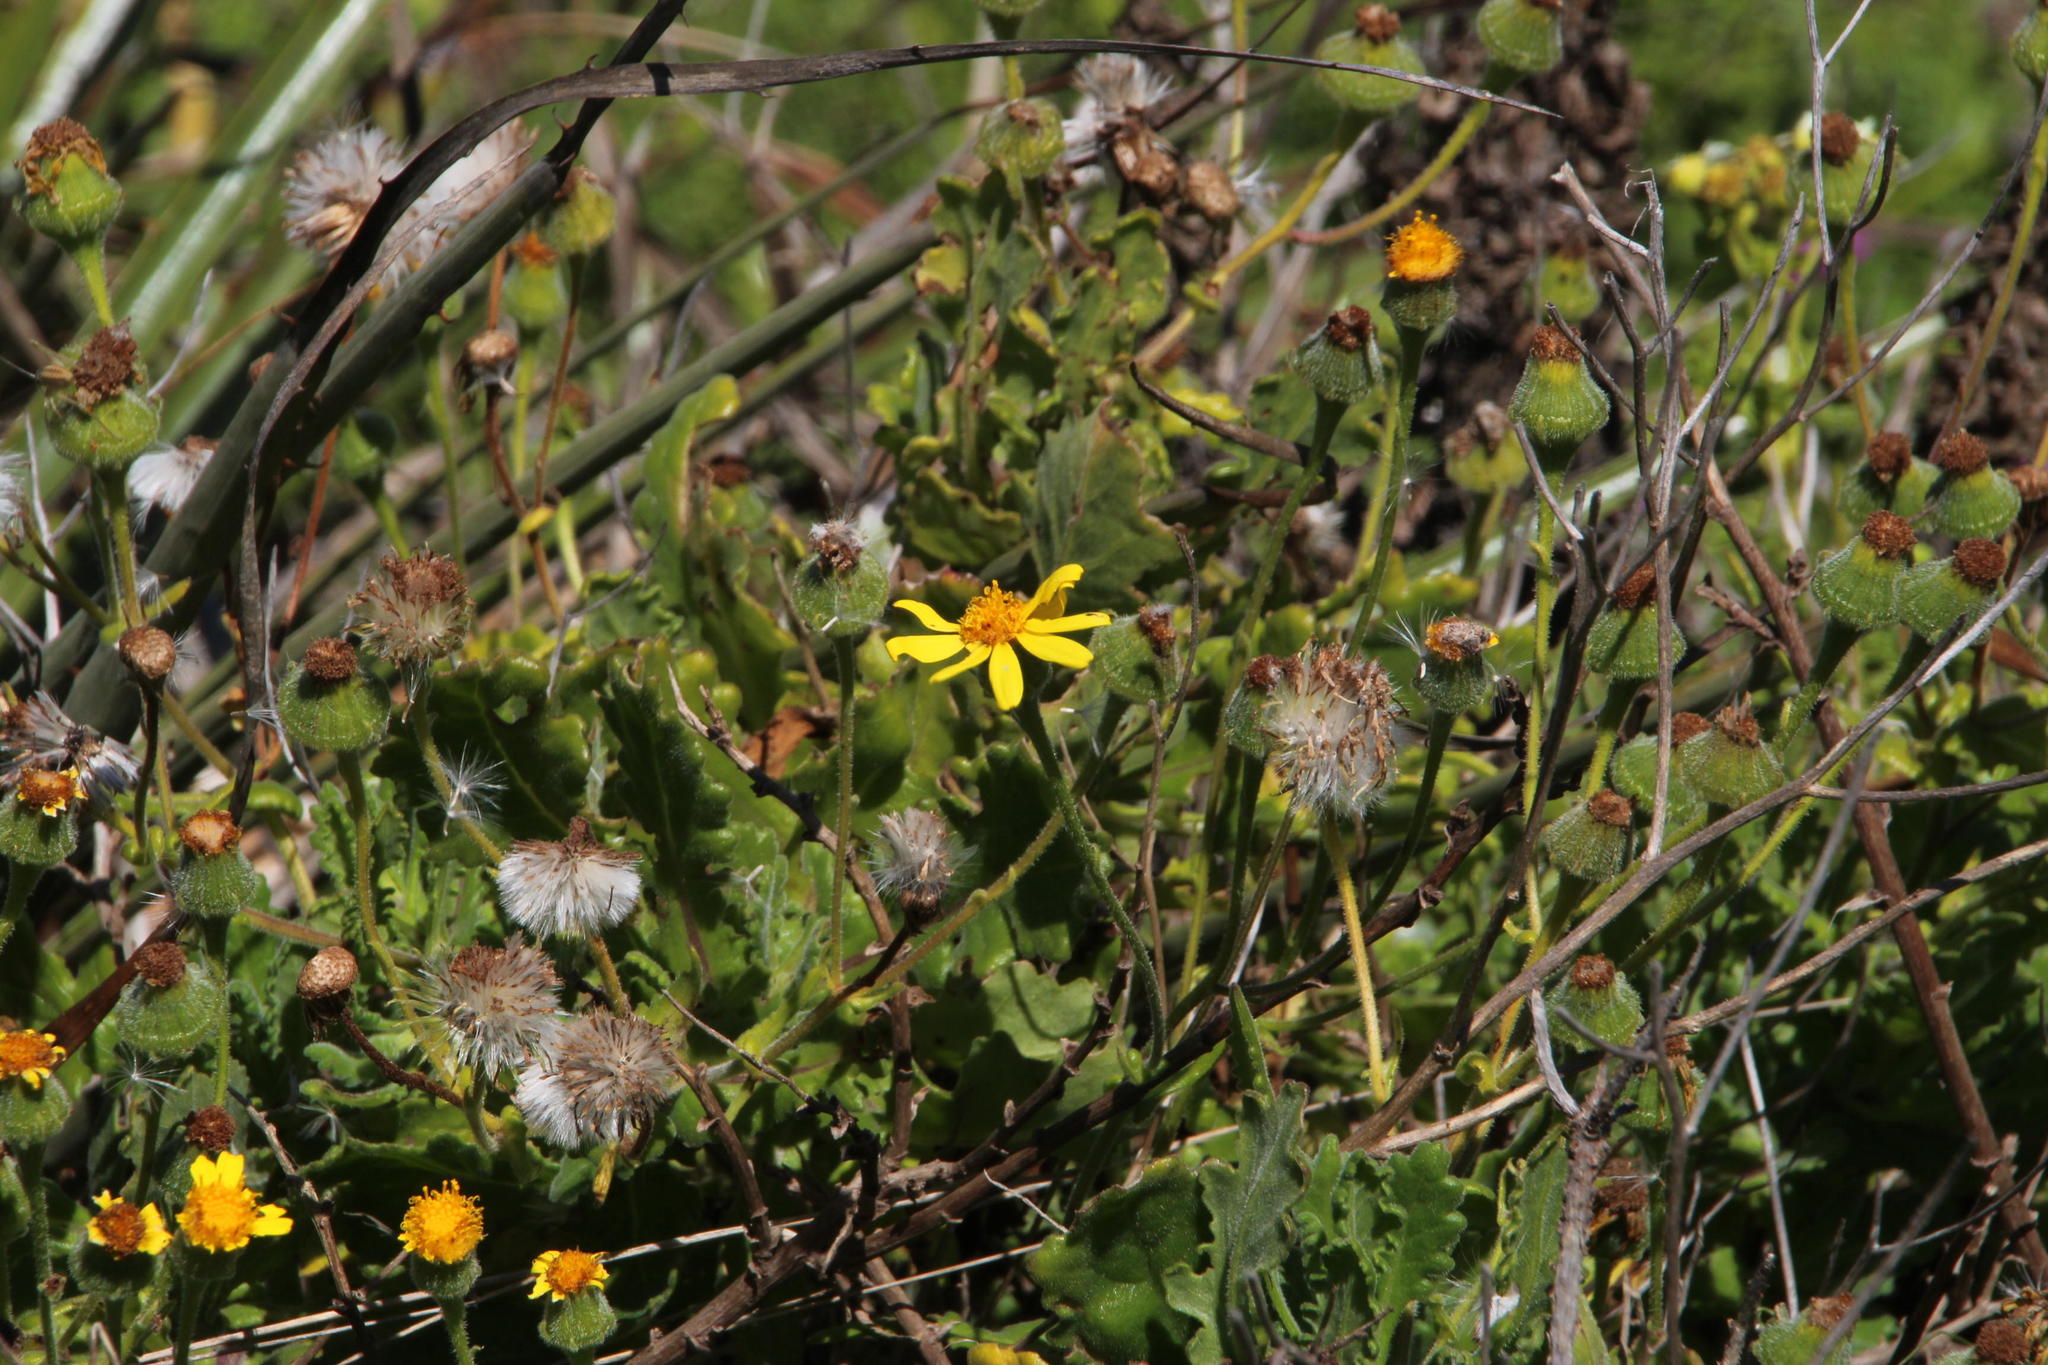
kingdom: Plantae
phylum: Tracheophyta
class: Magnoliopsida
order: Asterales
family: Asteraceae
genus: Senecio
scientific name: Senecio planiflorus
